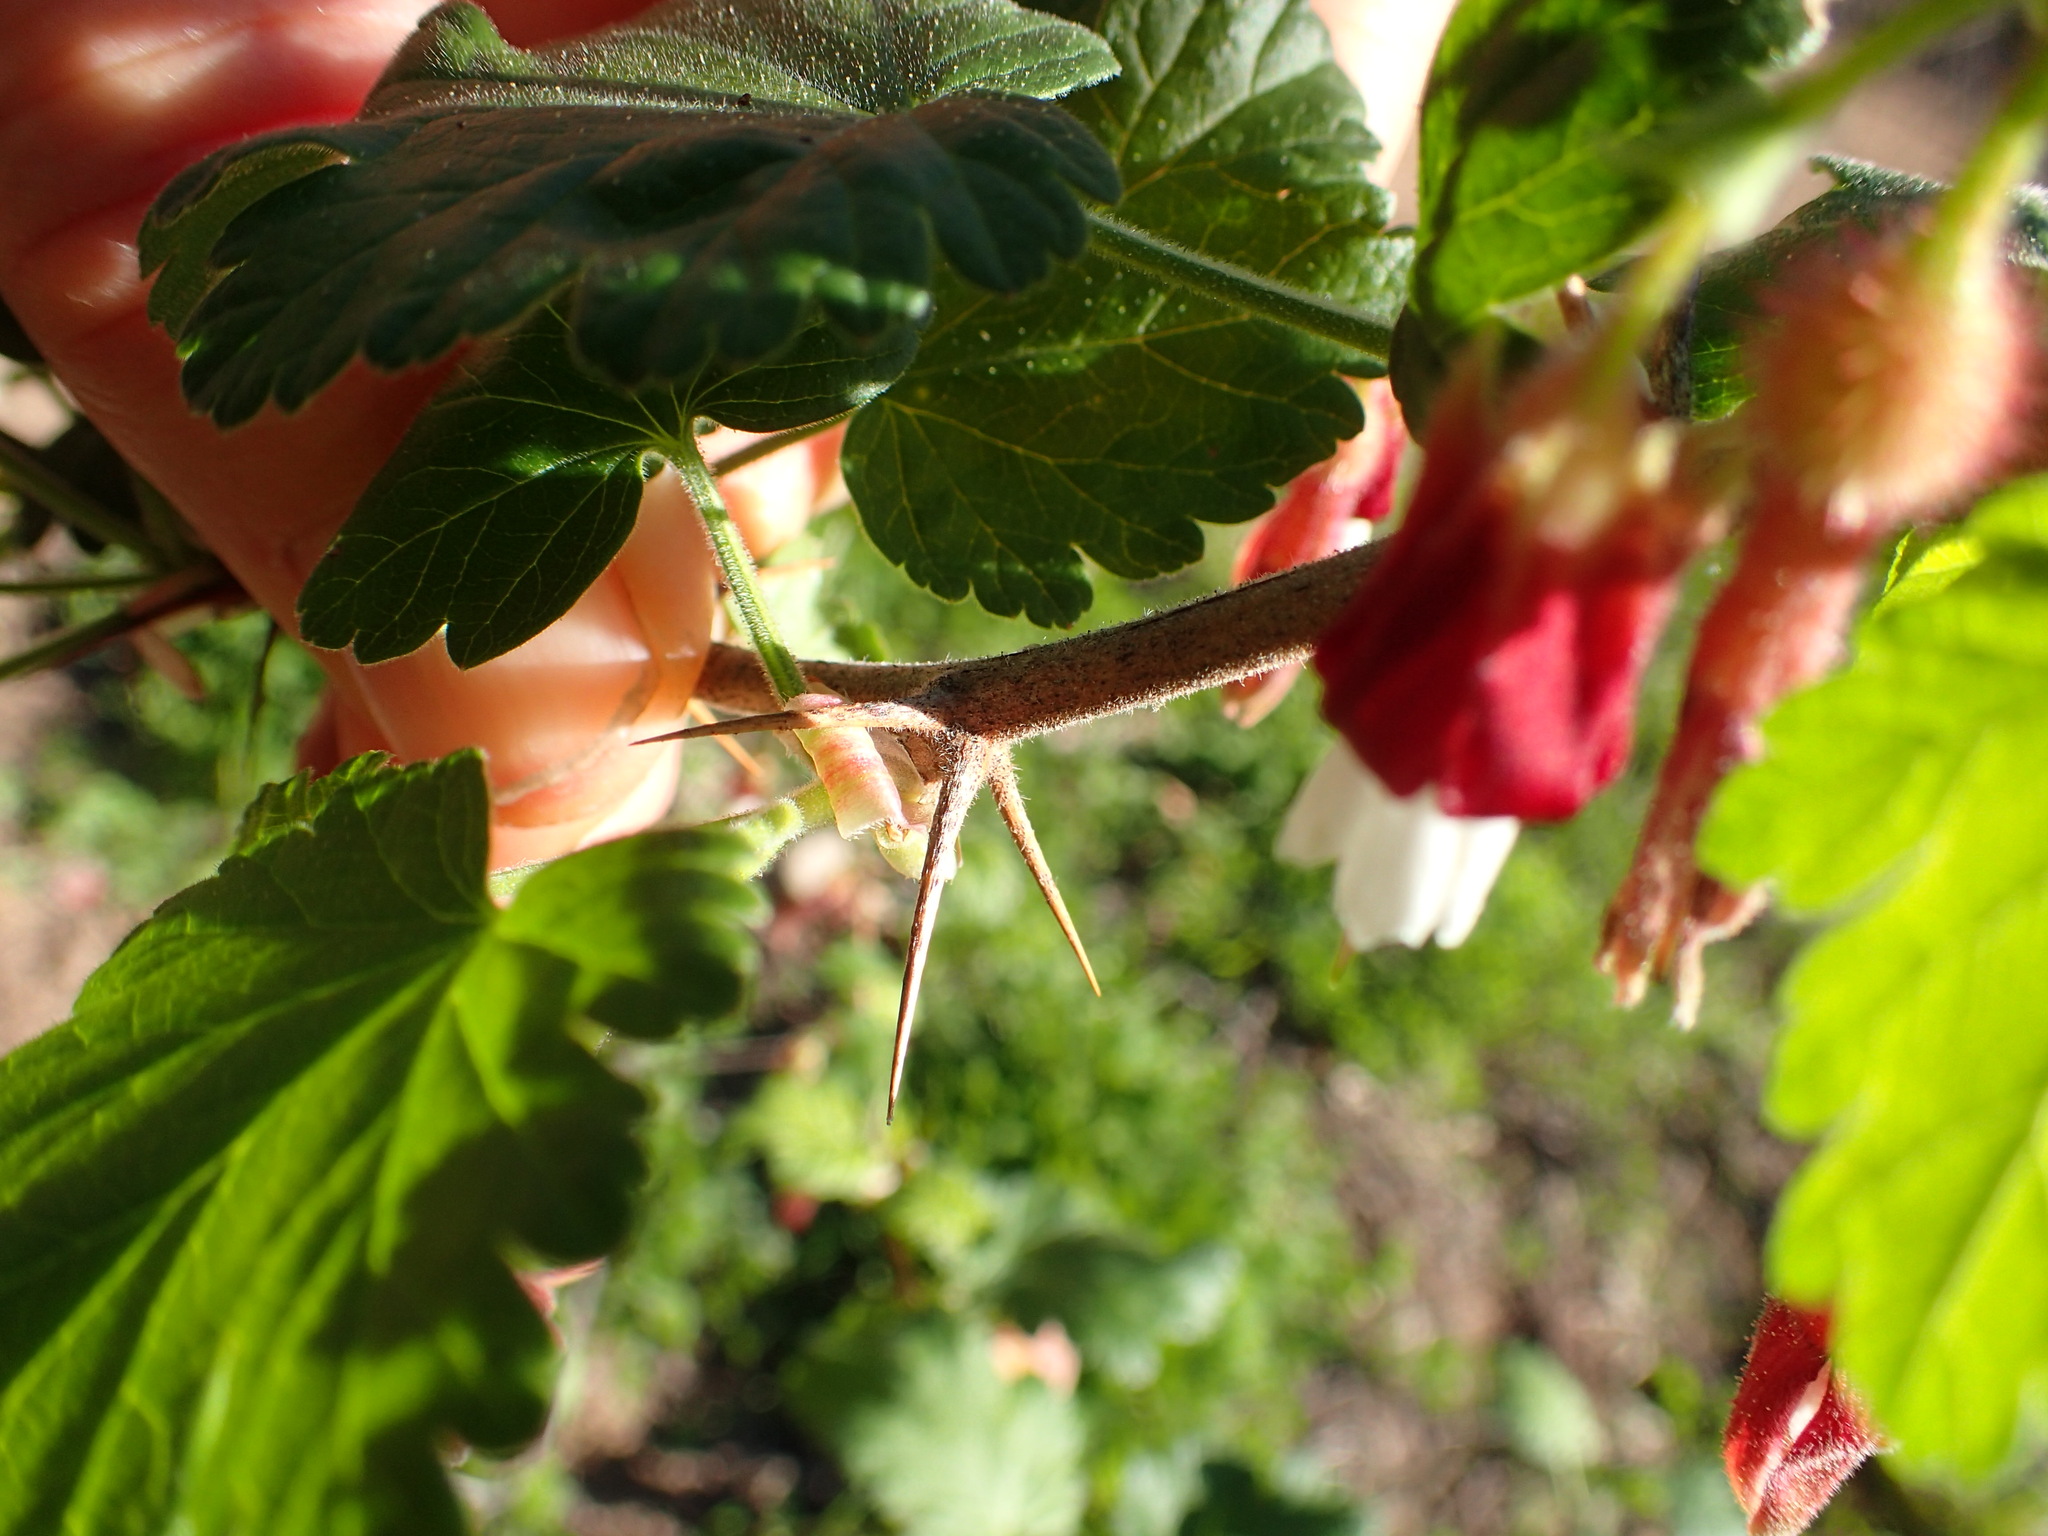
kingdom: Plantae
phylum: Tracheophyta
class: Magnoliopsida
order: Saxifragales
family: Grossulariaceae
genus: Ribes
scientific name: Ribes amarum
